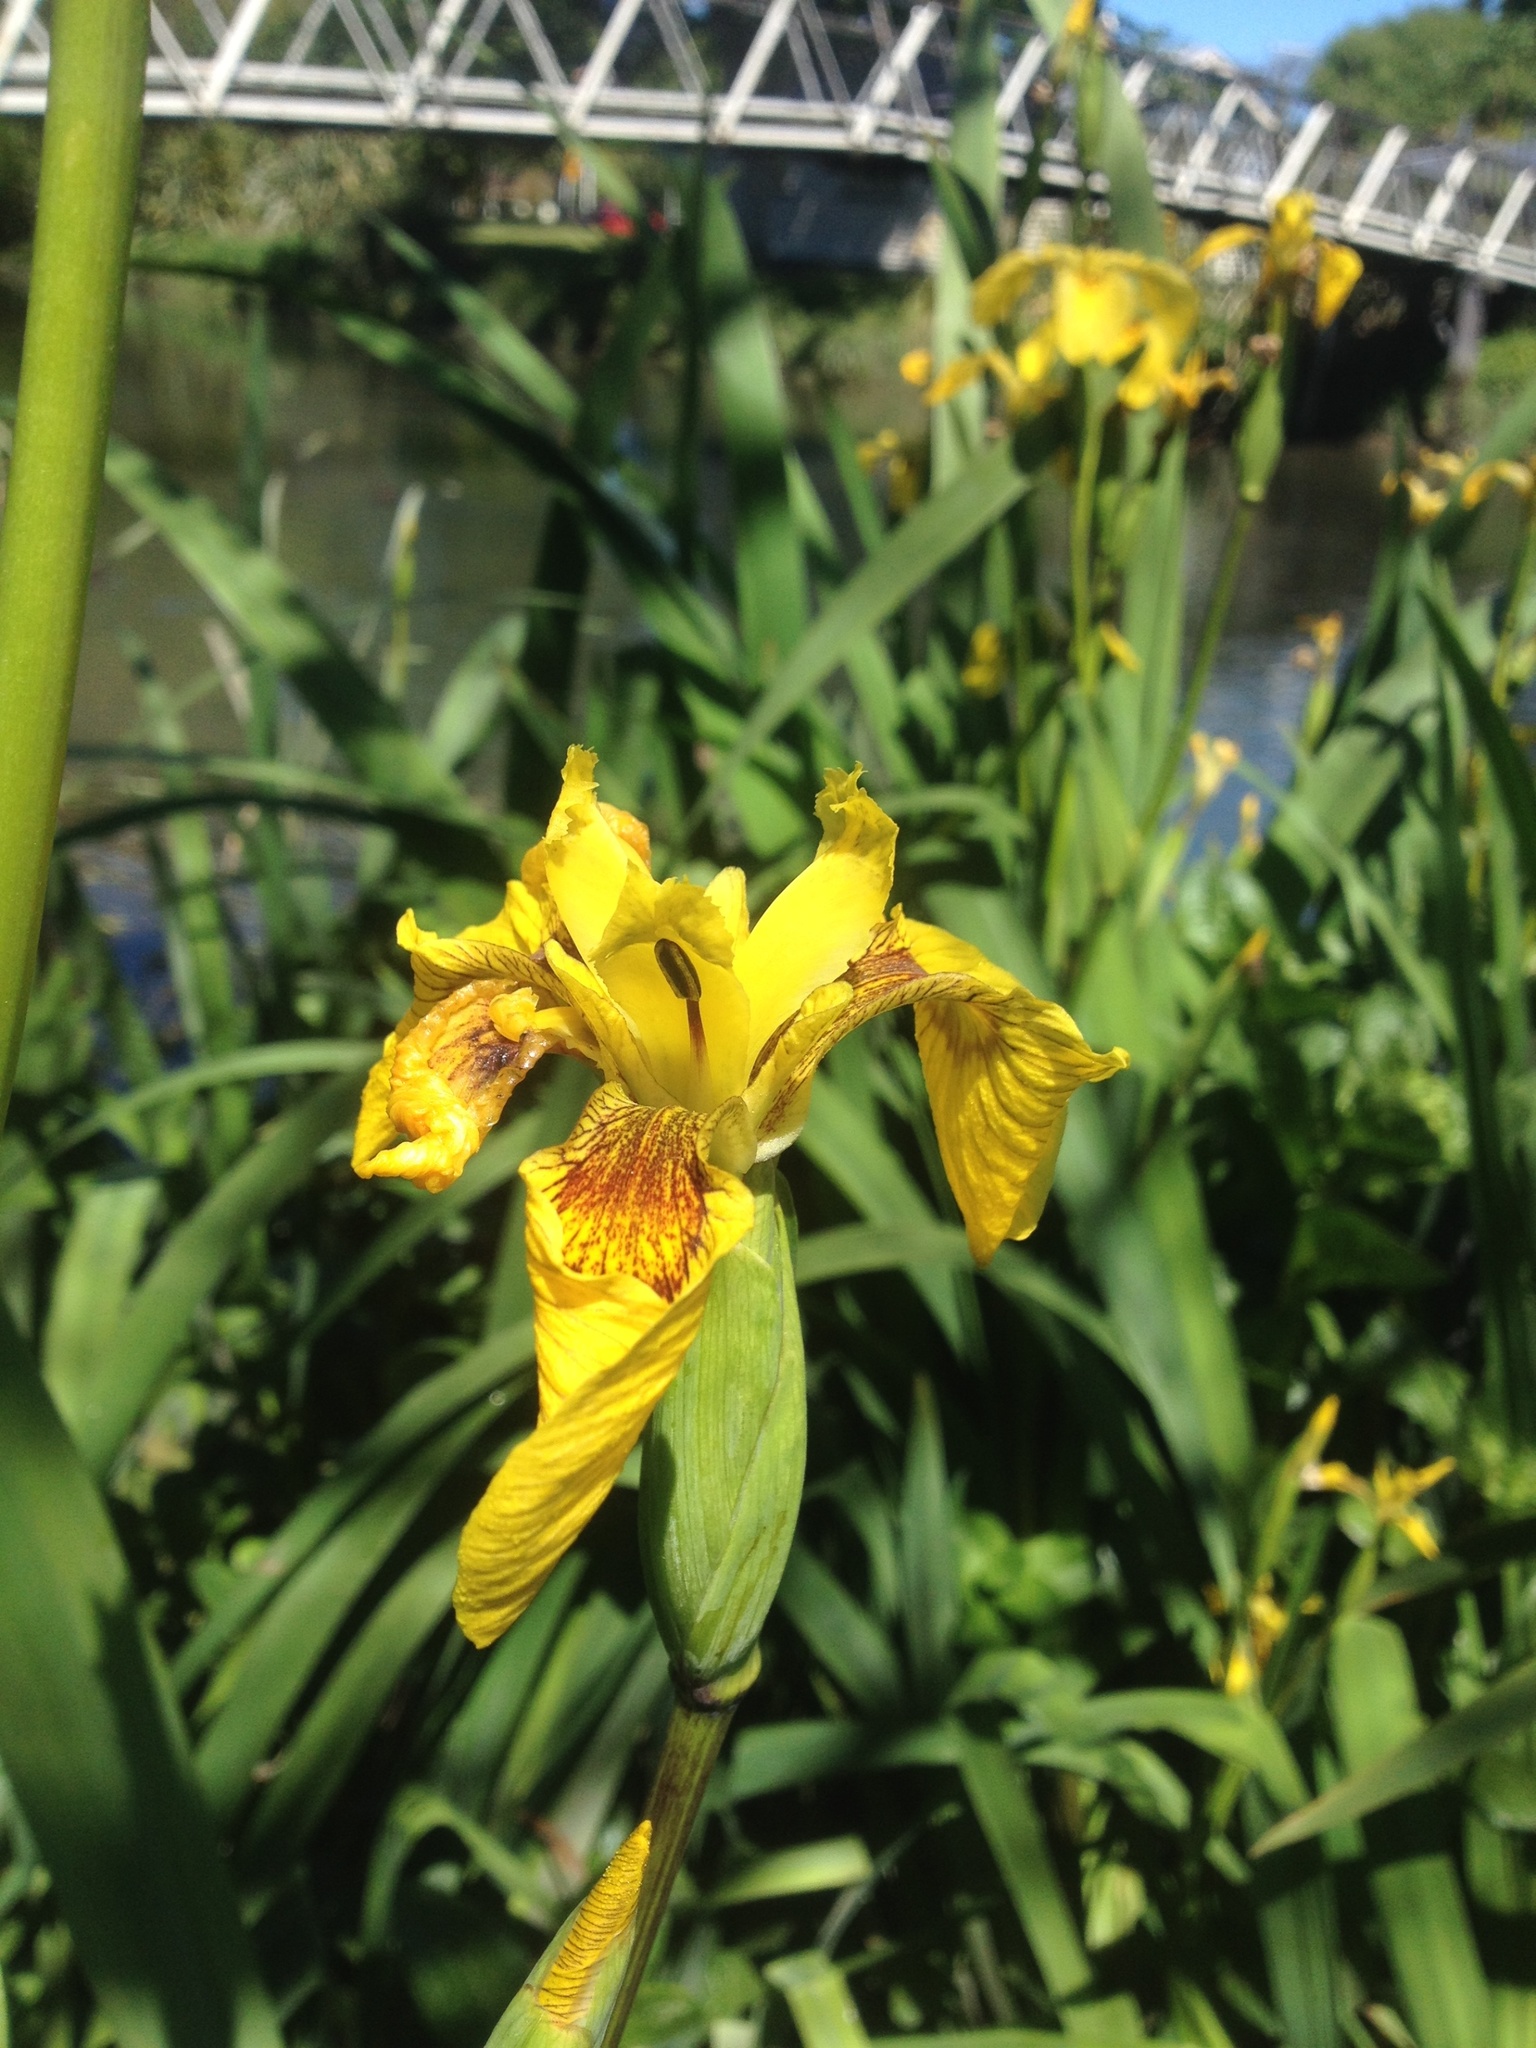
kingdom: Plantae
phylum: Tracheophyta
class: Liliopsida
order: Asparagales
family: Iridaceae
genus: Iris
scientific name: Iris pseudacorus
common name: Yellow flag
